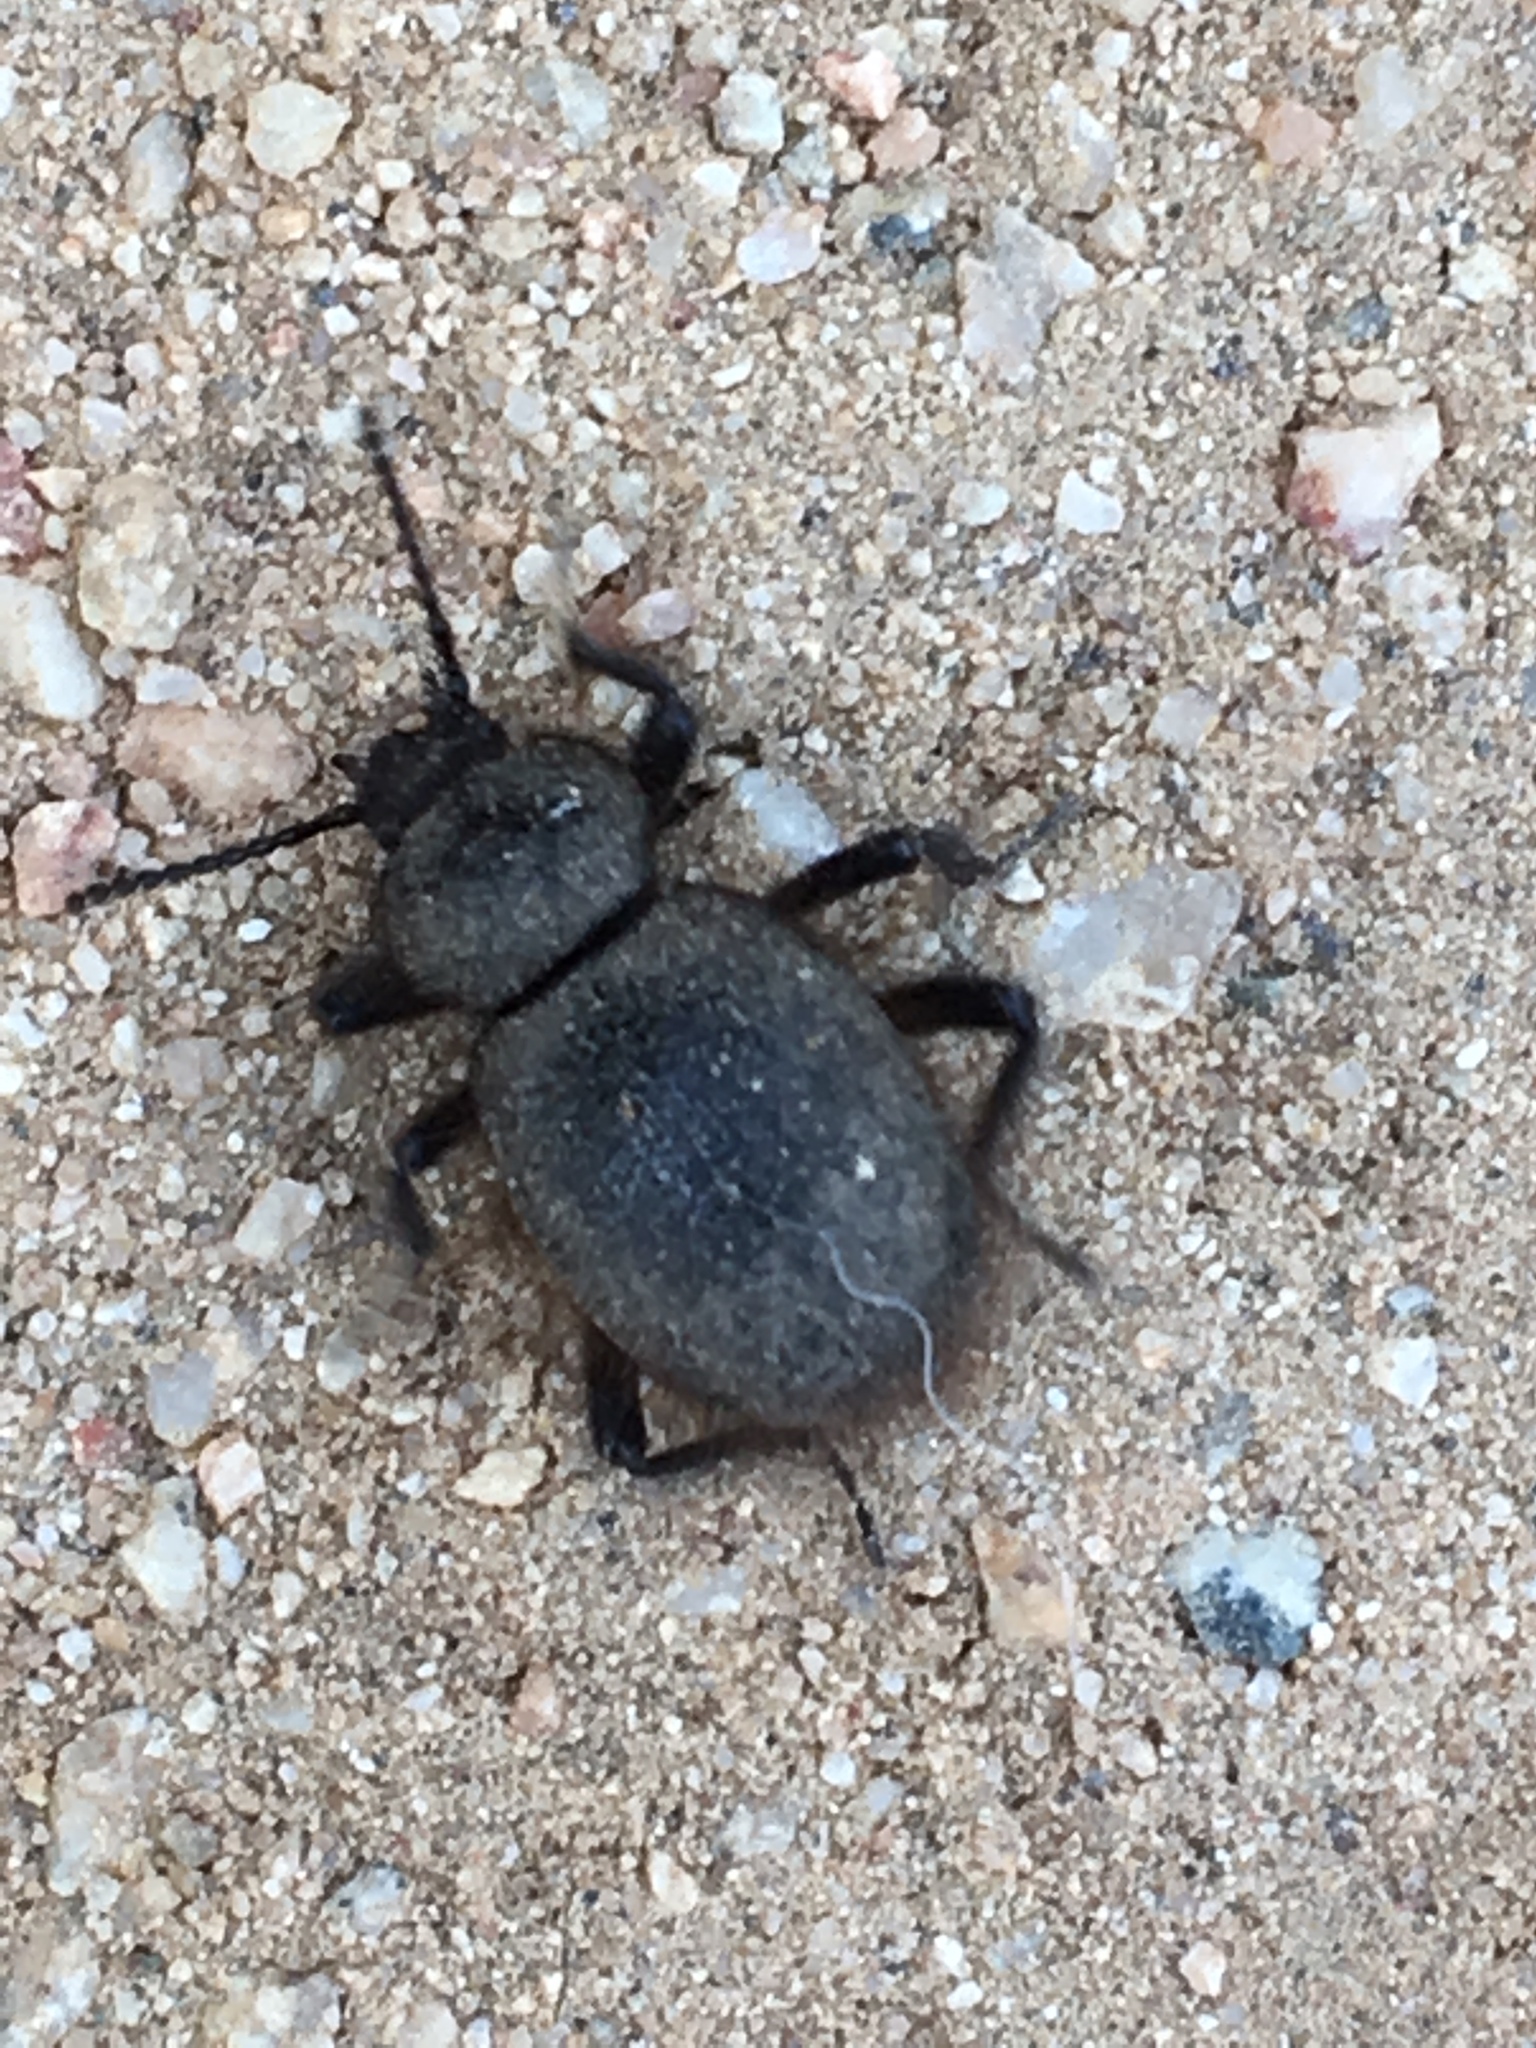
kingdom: Animalia
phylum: Arthropoda
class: Insecta
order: Coleoptera
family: Tenebrionidae
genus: Eleodes
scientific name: Eleodes osculans
